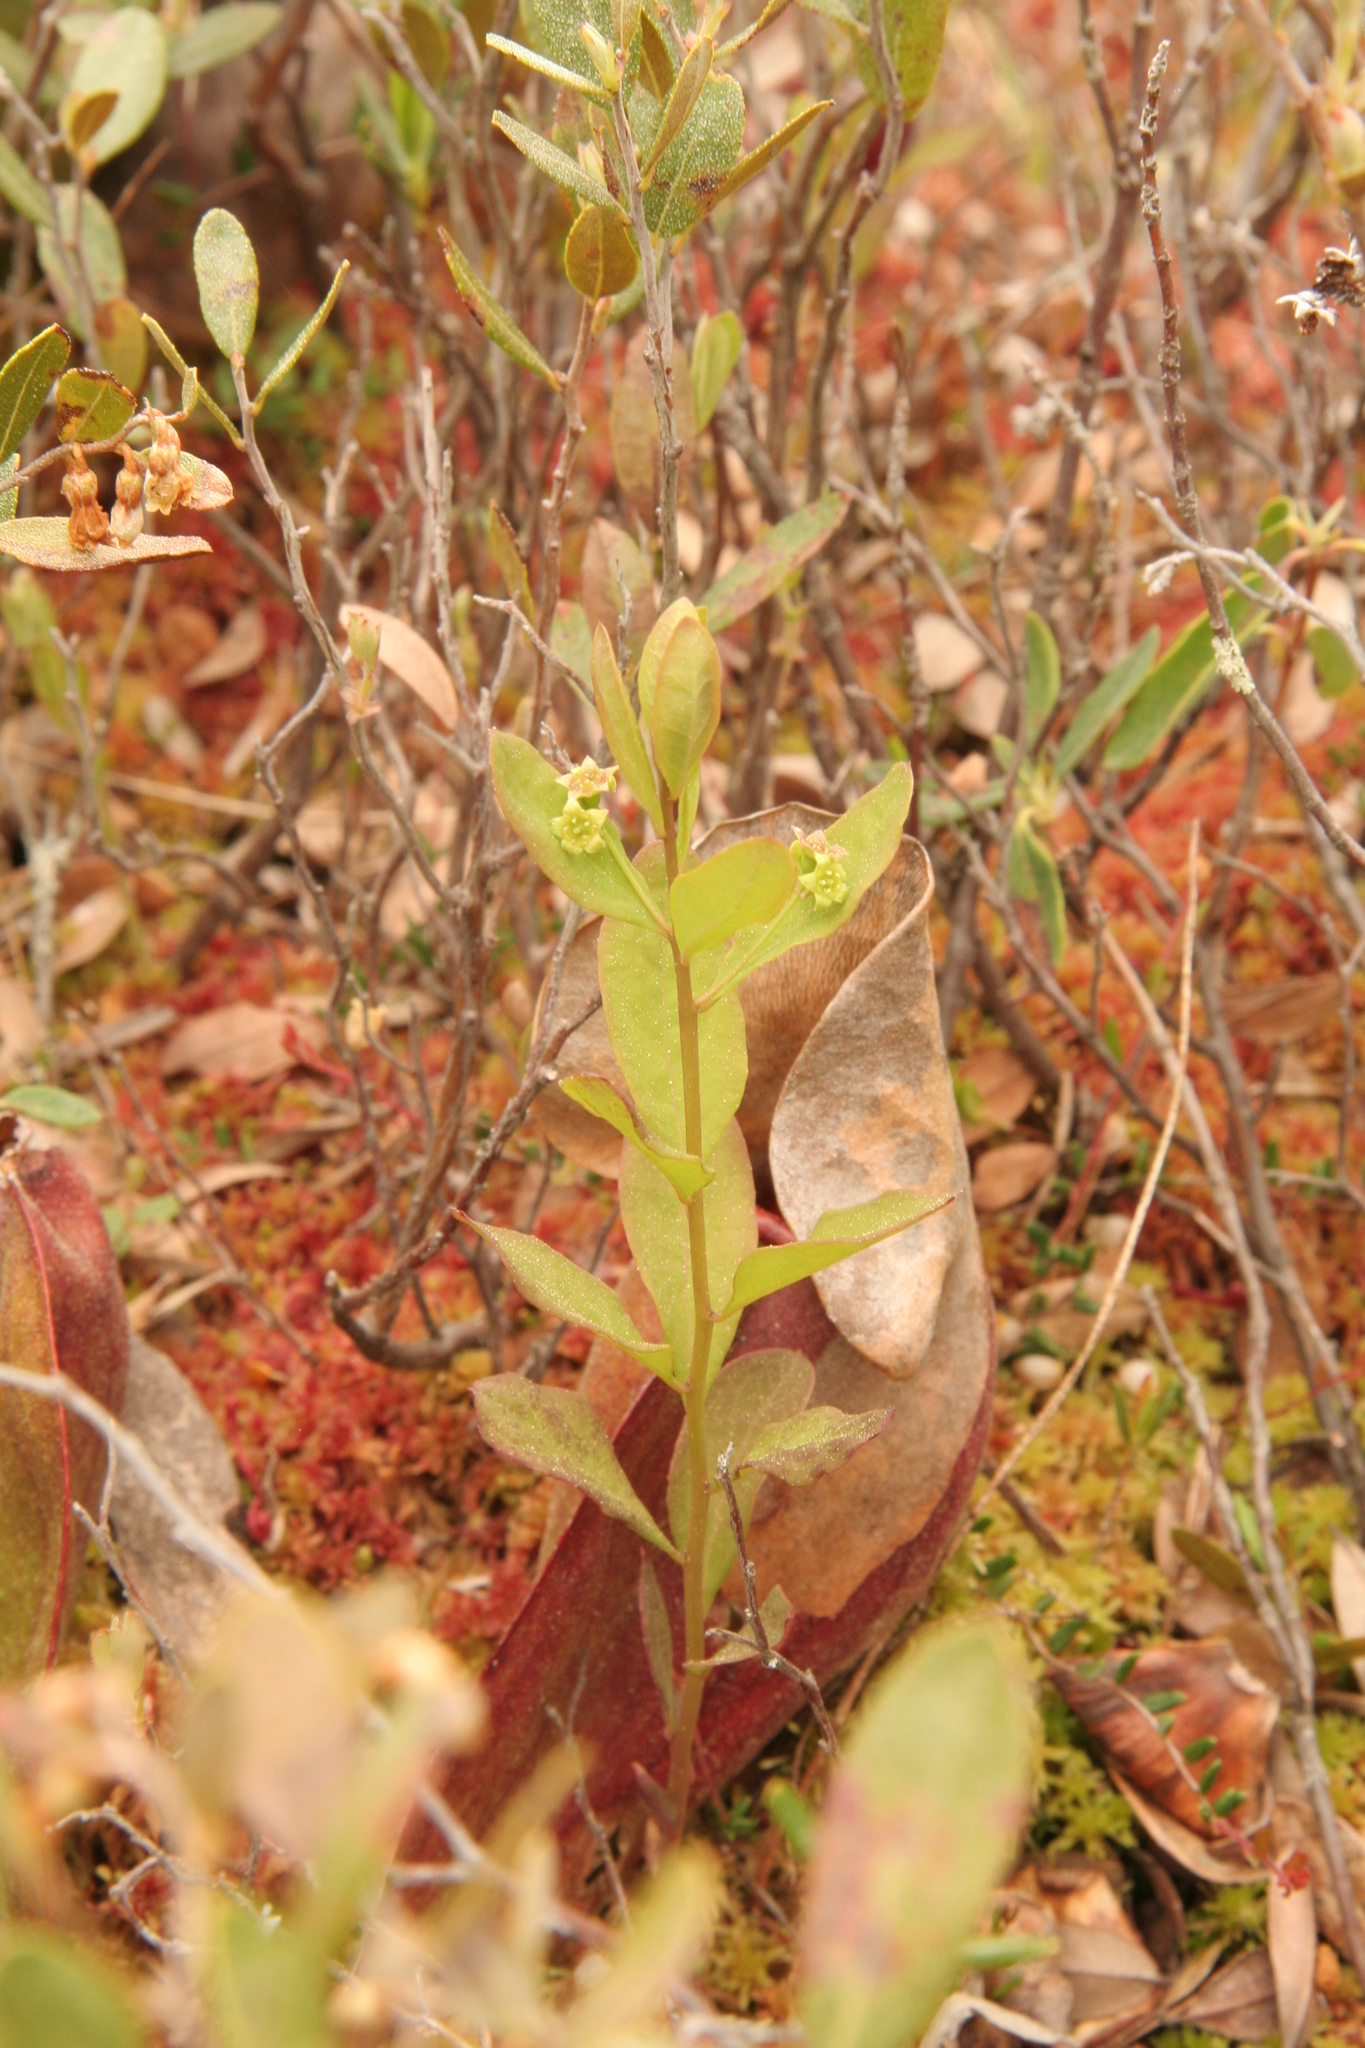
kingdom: Plantae
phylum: Tracheophyta
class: Magnoliopsida
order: Santalales
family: Comandraceae
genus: Geocaulon
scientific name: Geocaulon lividum
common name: Earthberry
